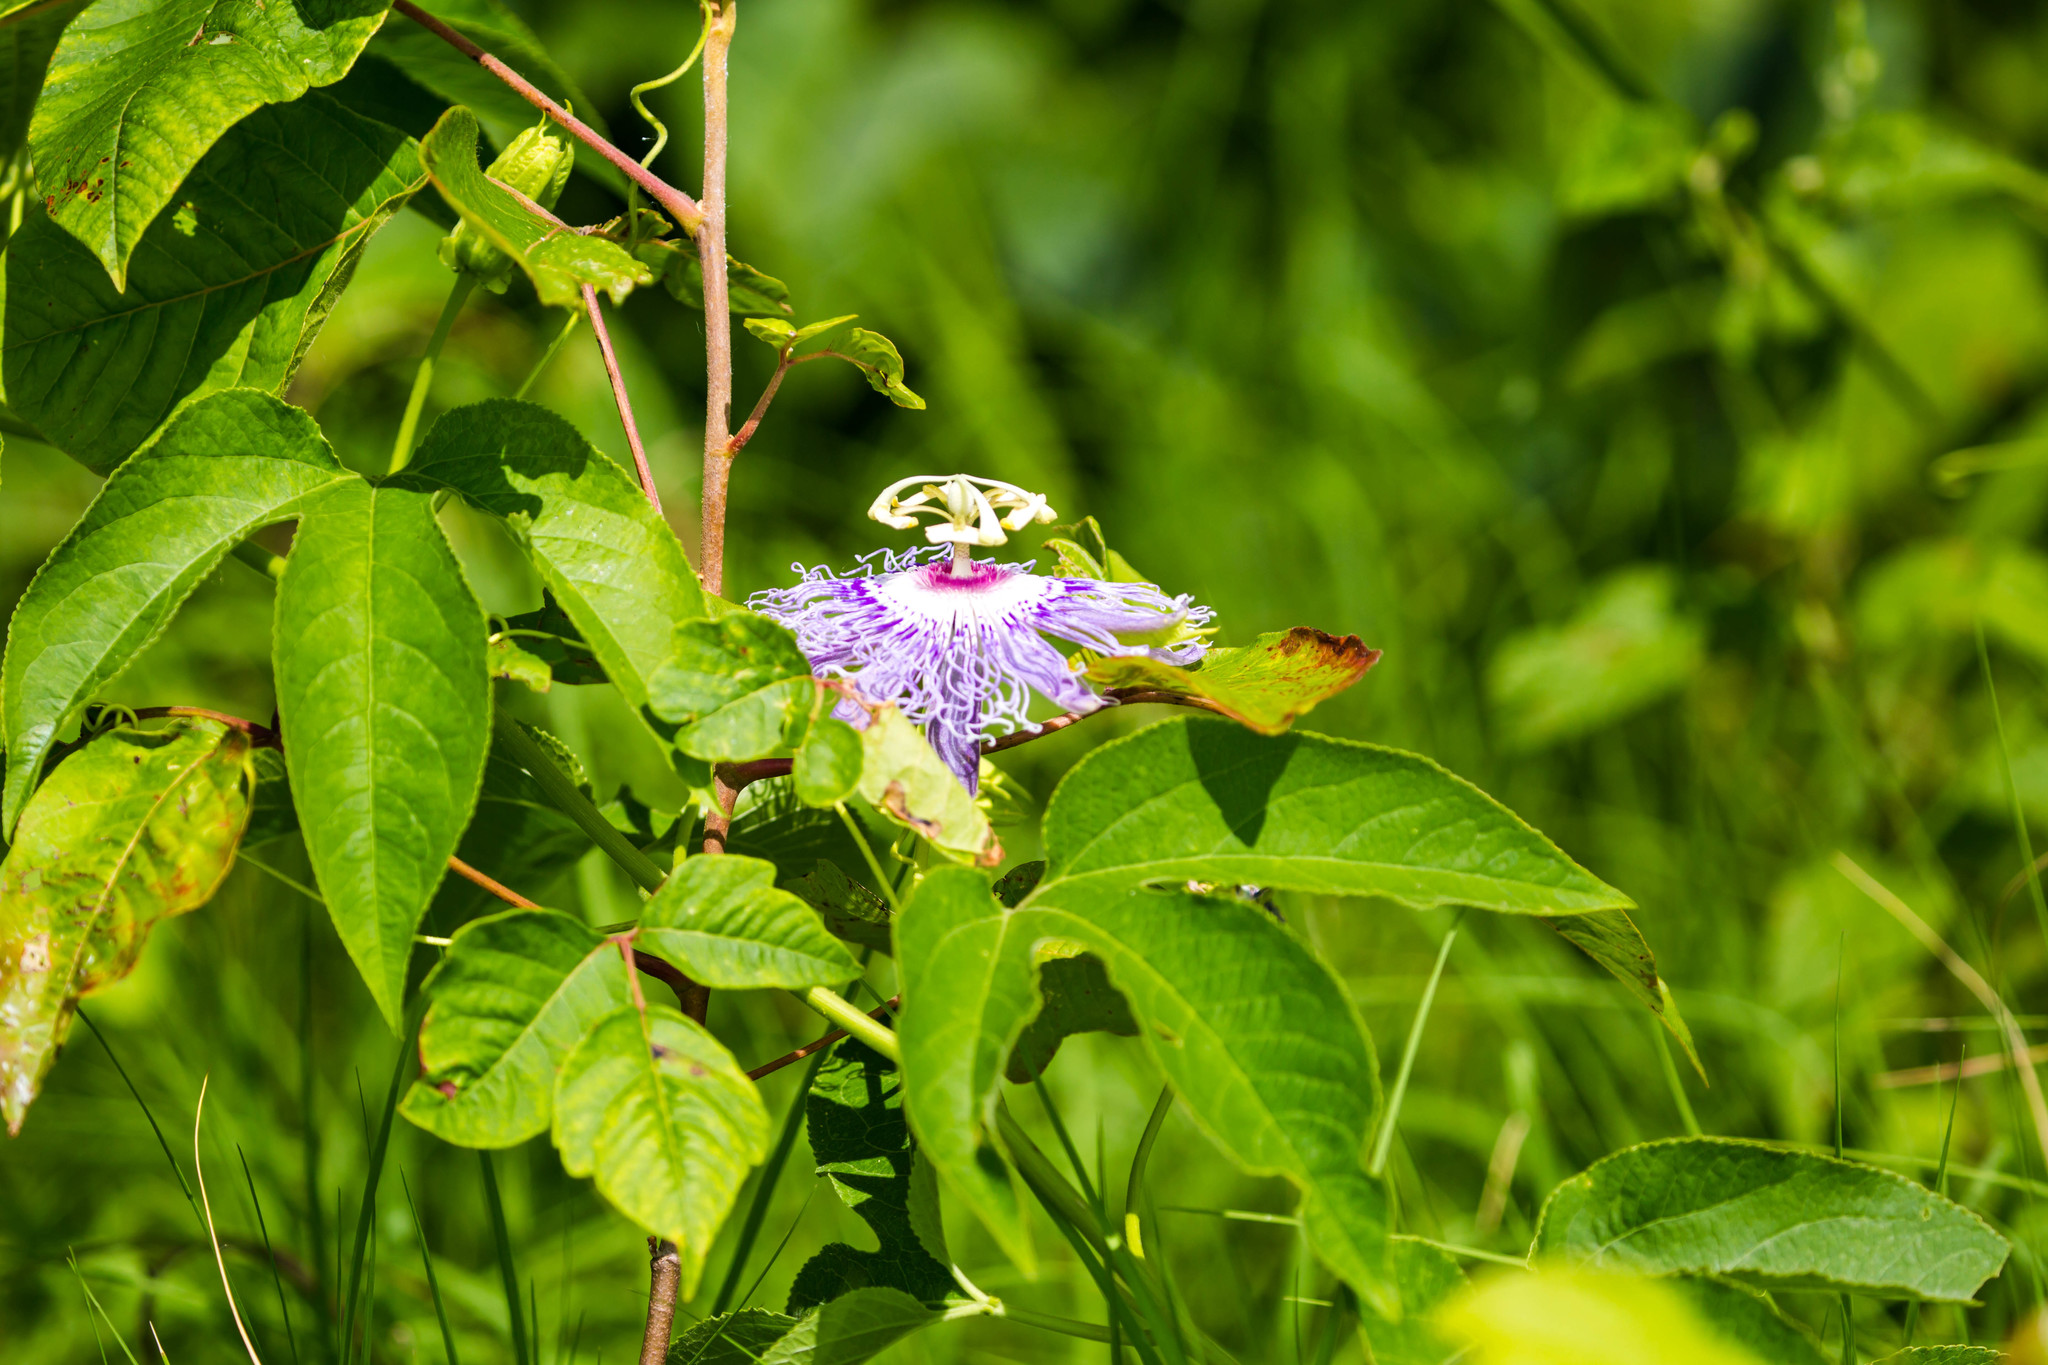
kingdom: Plantae
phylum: Tracheophyta
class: Magnoliopsida
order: Malpighiales
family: Passifloraceae
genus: Passiflora
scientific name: Passiflora incarnata
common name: Apricot-vine
